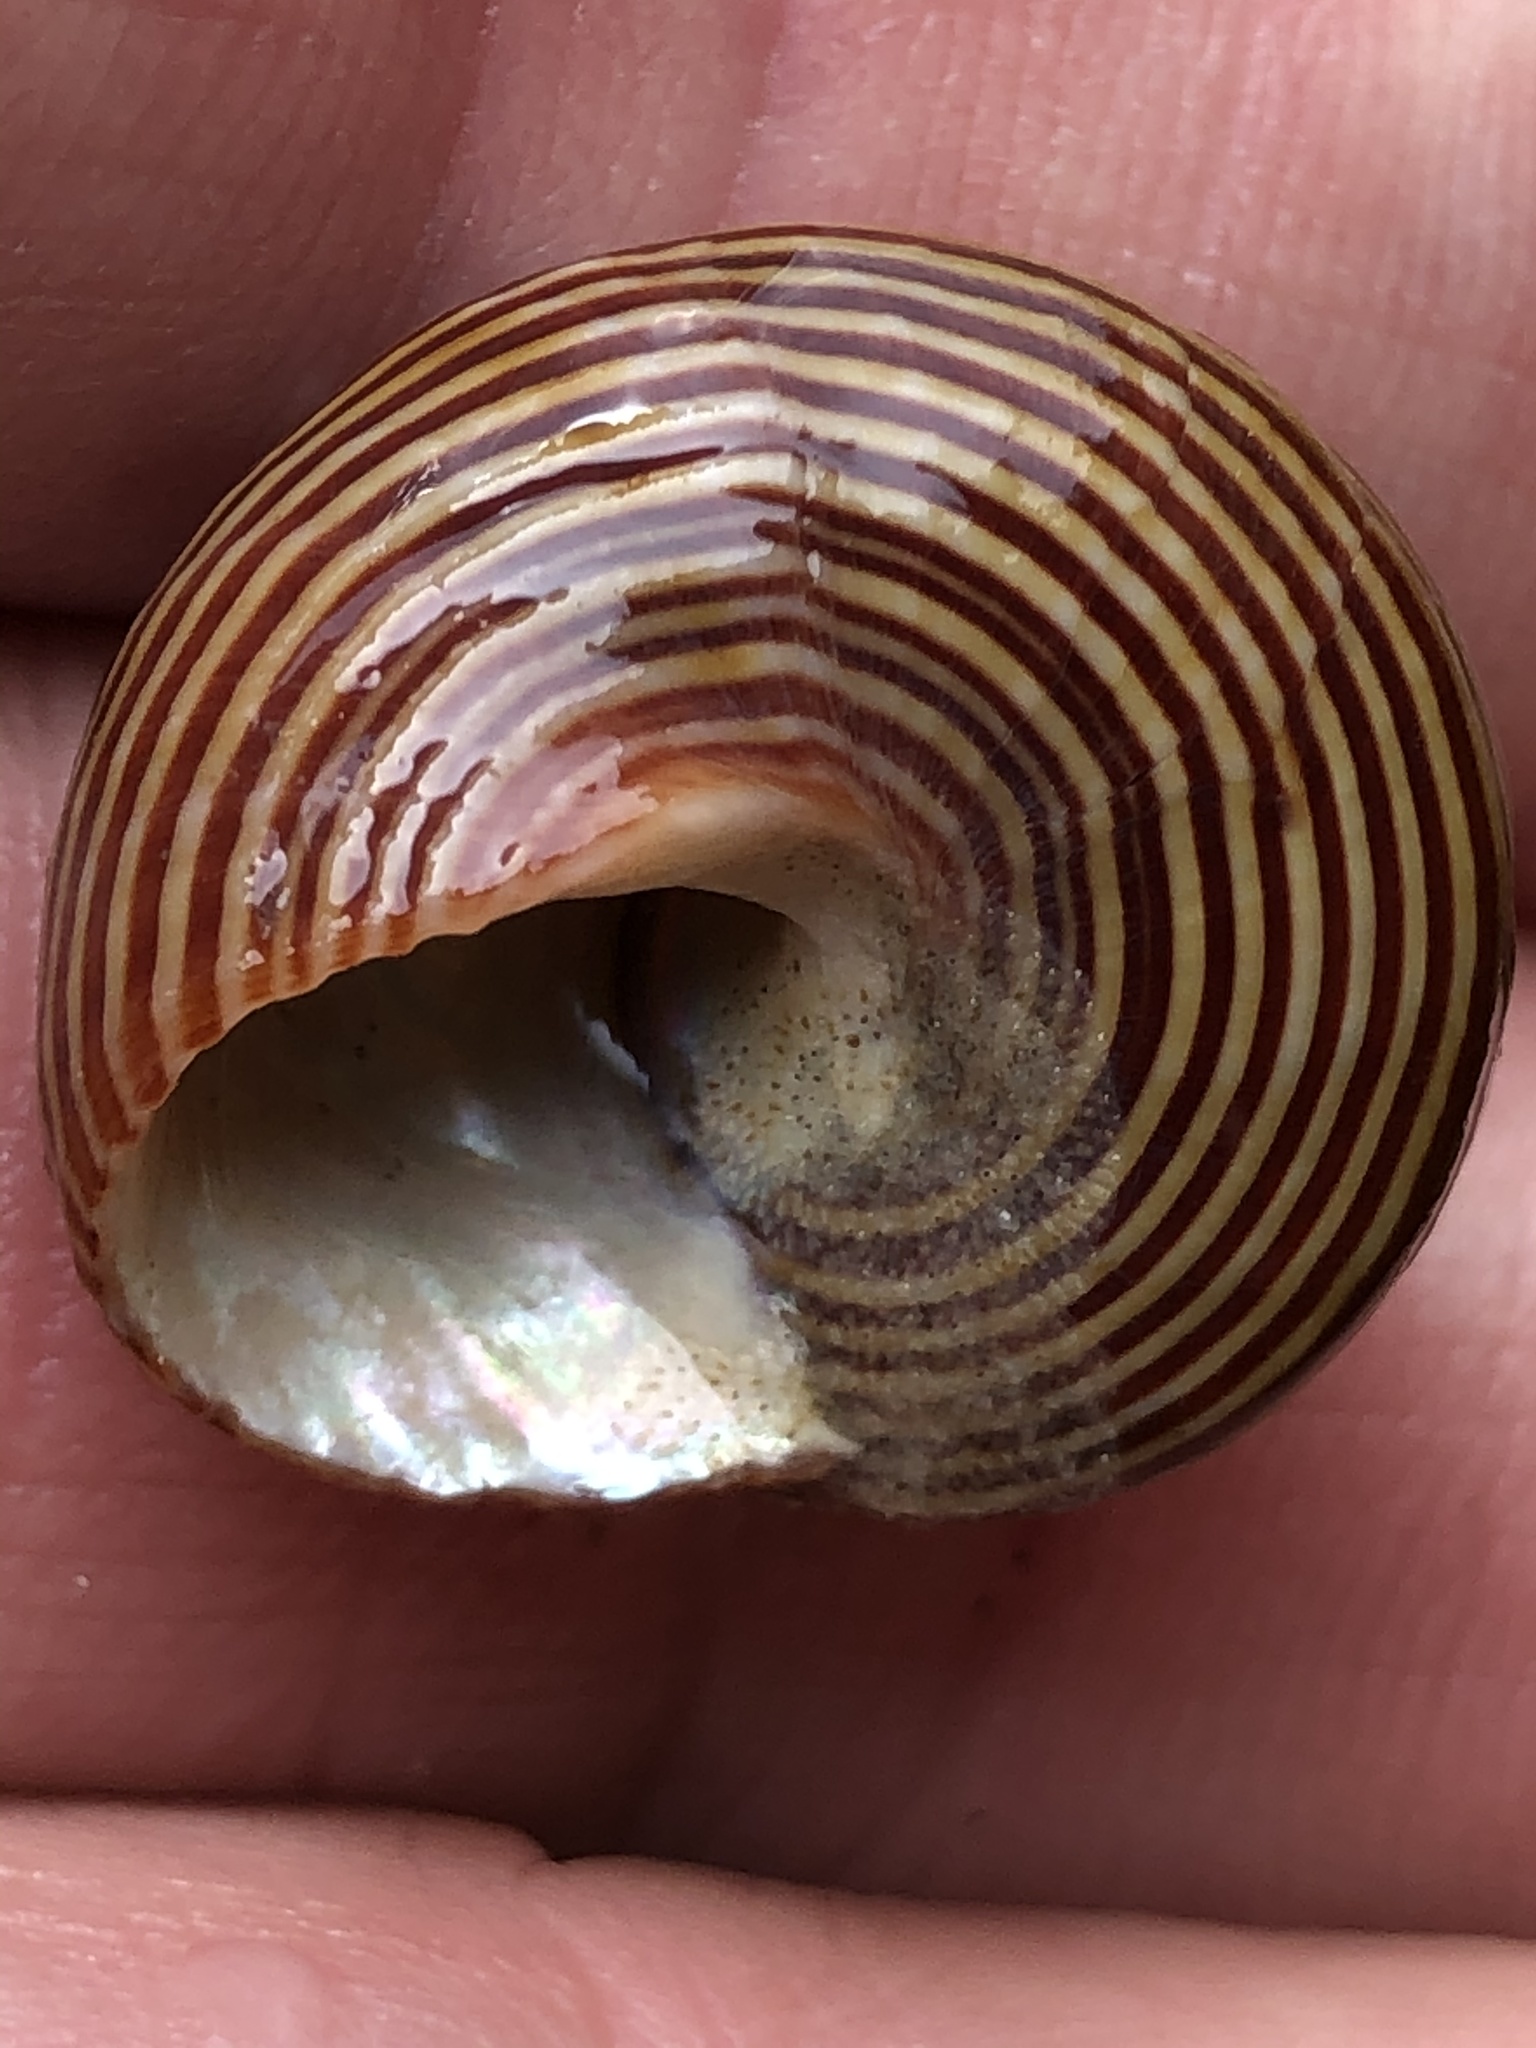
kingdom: Animalia
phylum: Mollusca
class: Gastropoda
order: Trochida
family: Calliostomatidae
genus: Calliostoma
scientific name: Calliostoma ligatum
